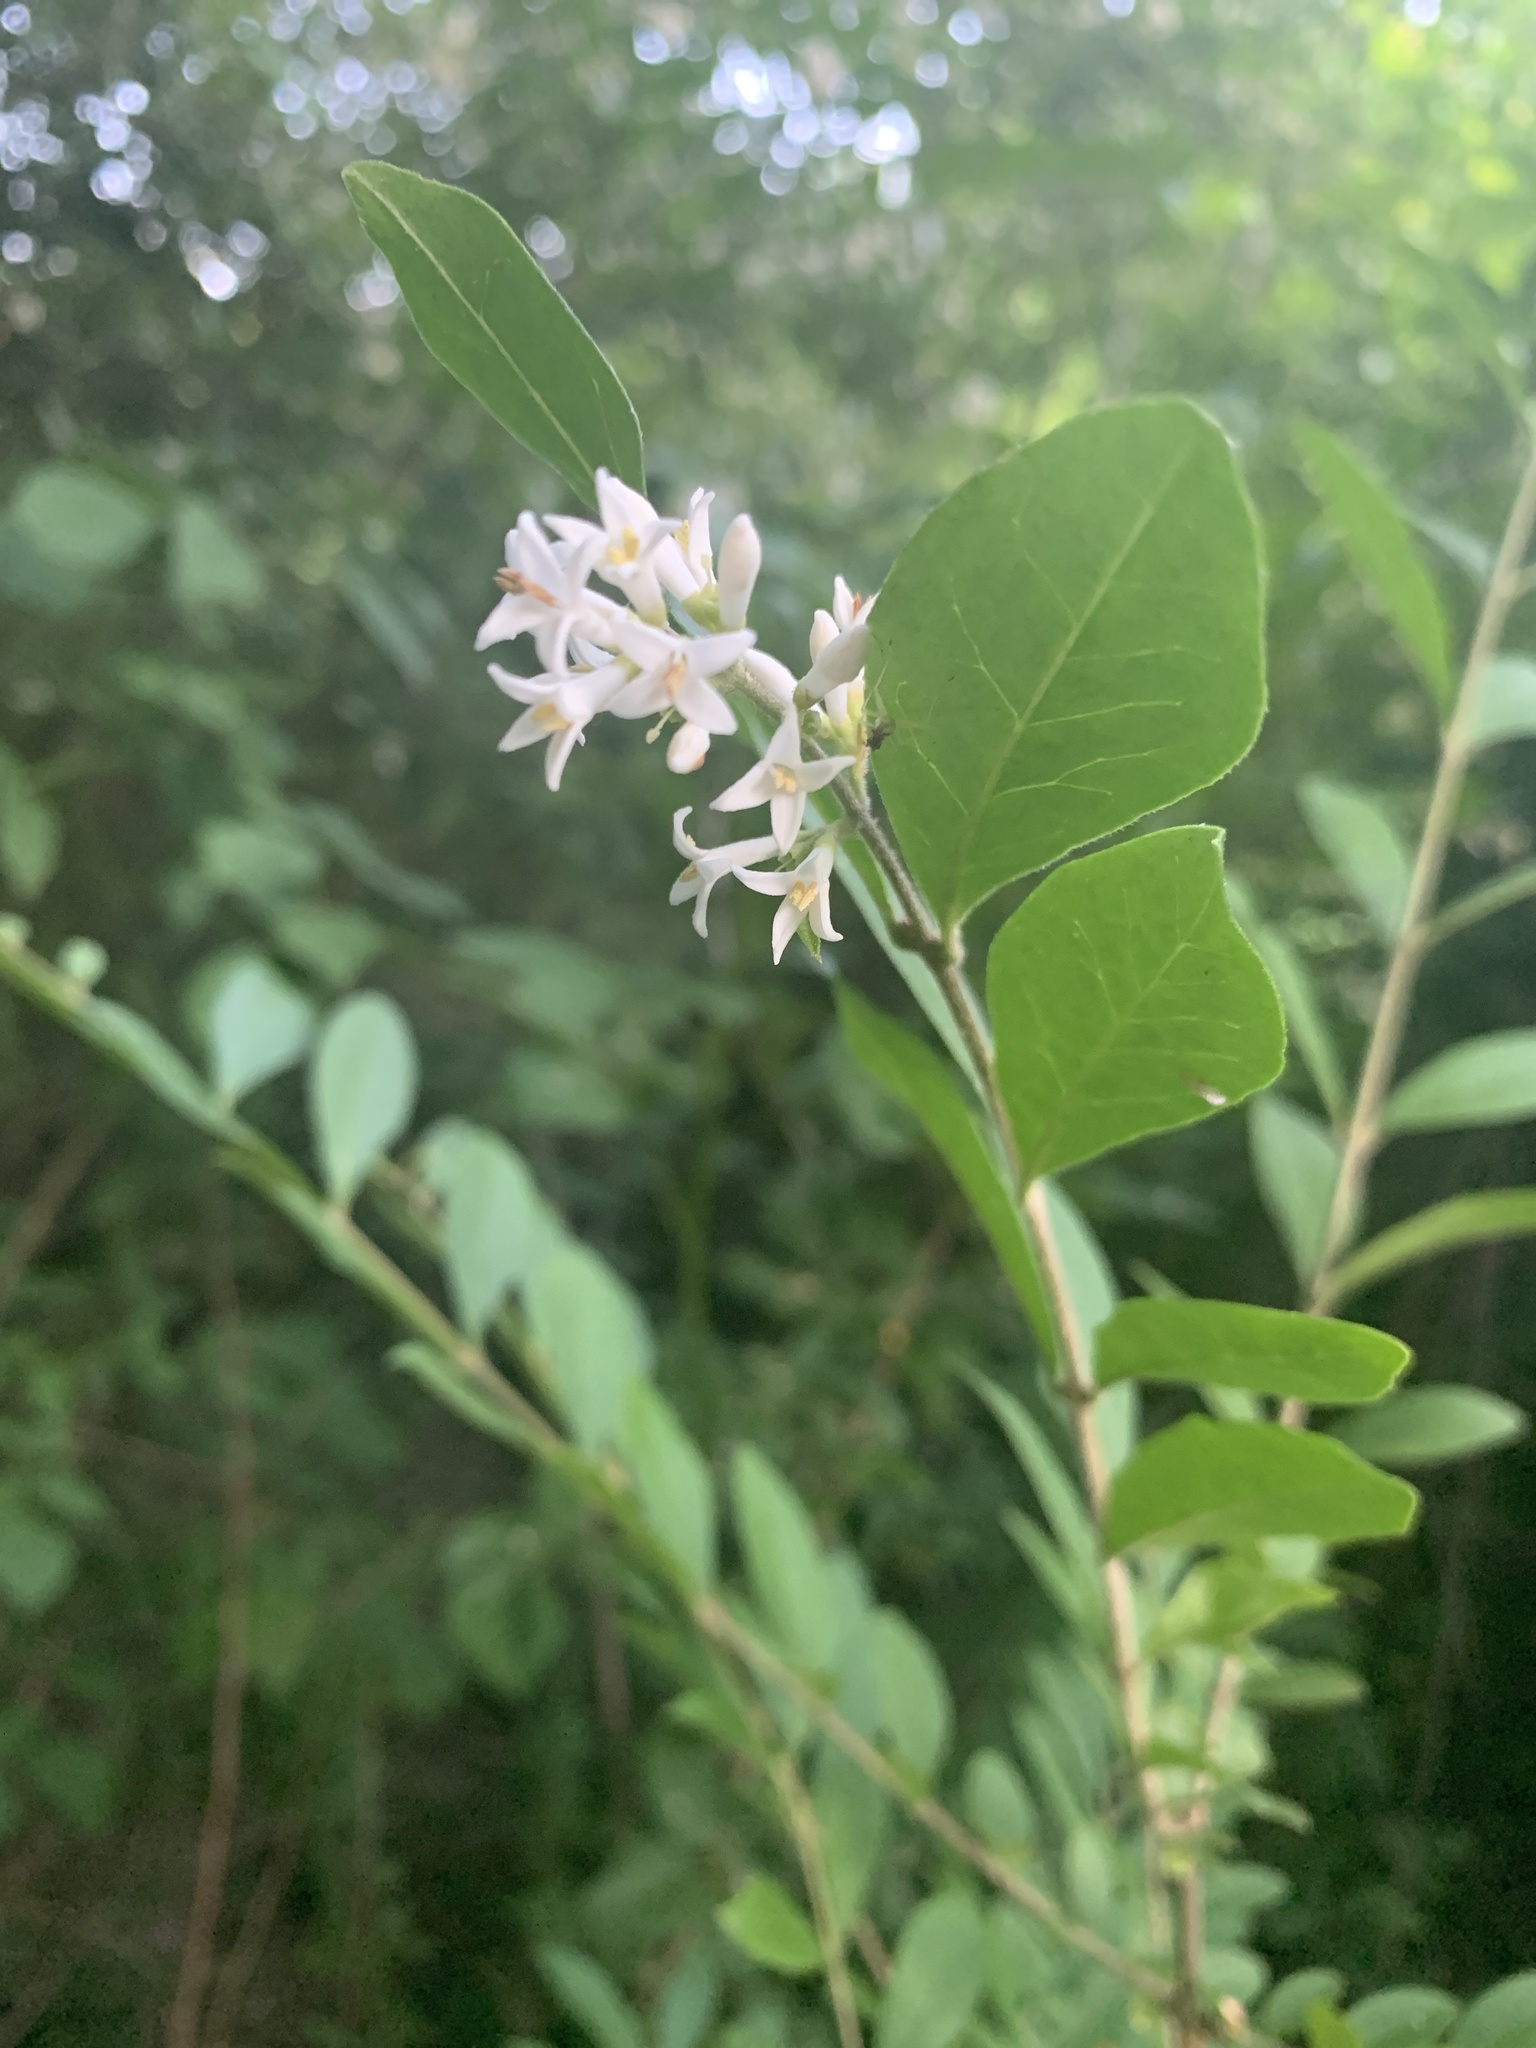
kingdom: Plantae
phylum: Tracheophyta
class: Magnoliopsida
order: Lamiales
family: Oleaceae
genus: Ligustrum
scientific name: Ligustrum obtusifolium
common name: Border privet
